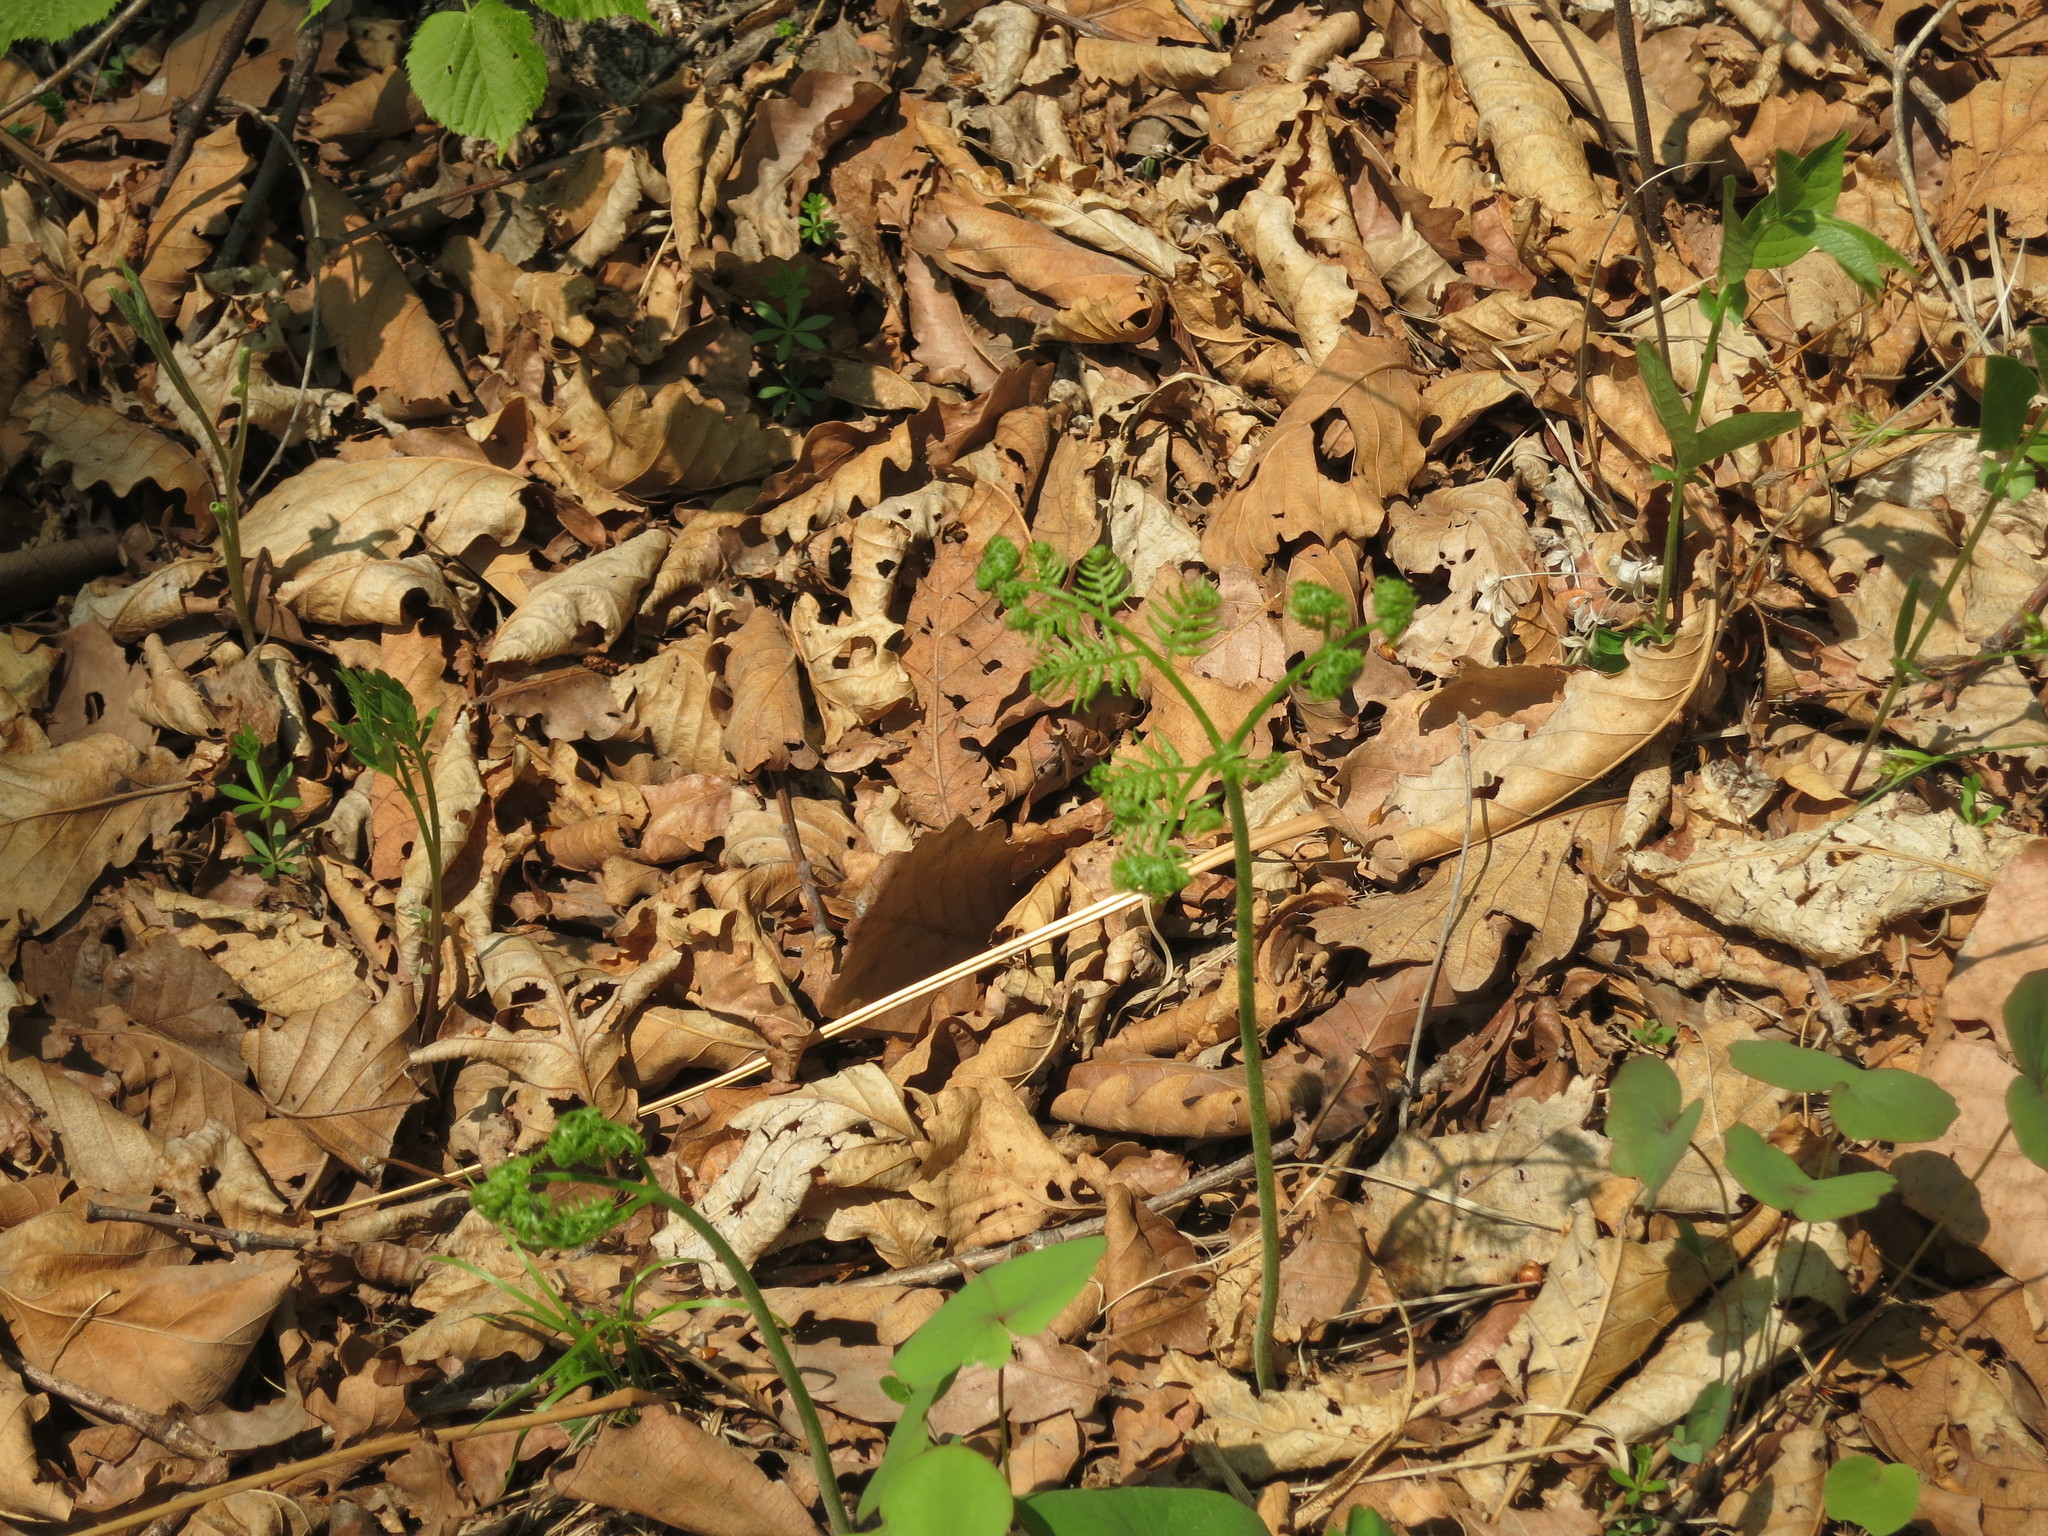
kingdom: Plantae
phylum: Tracheophyta
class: Polypodiopsida
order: Polypodiales
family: Dennstaedtiaceae
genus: Pteridium
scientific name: Pteridium aquilinum
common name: Bracken
